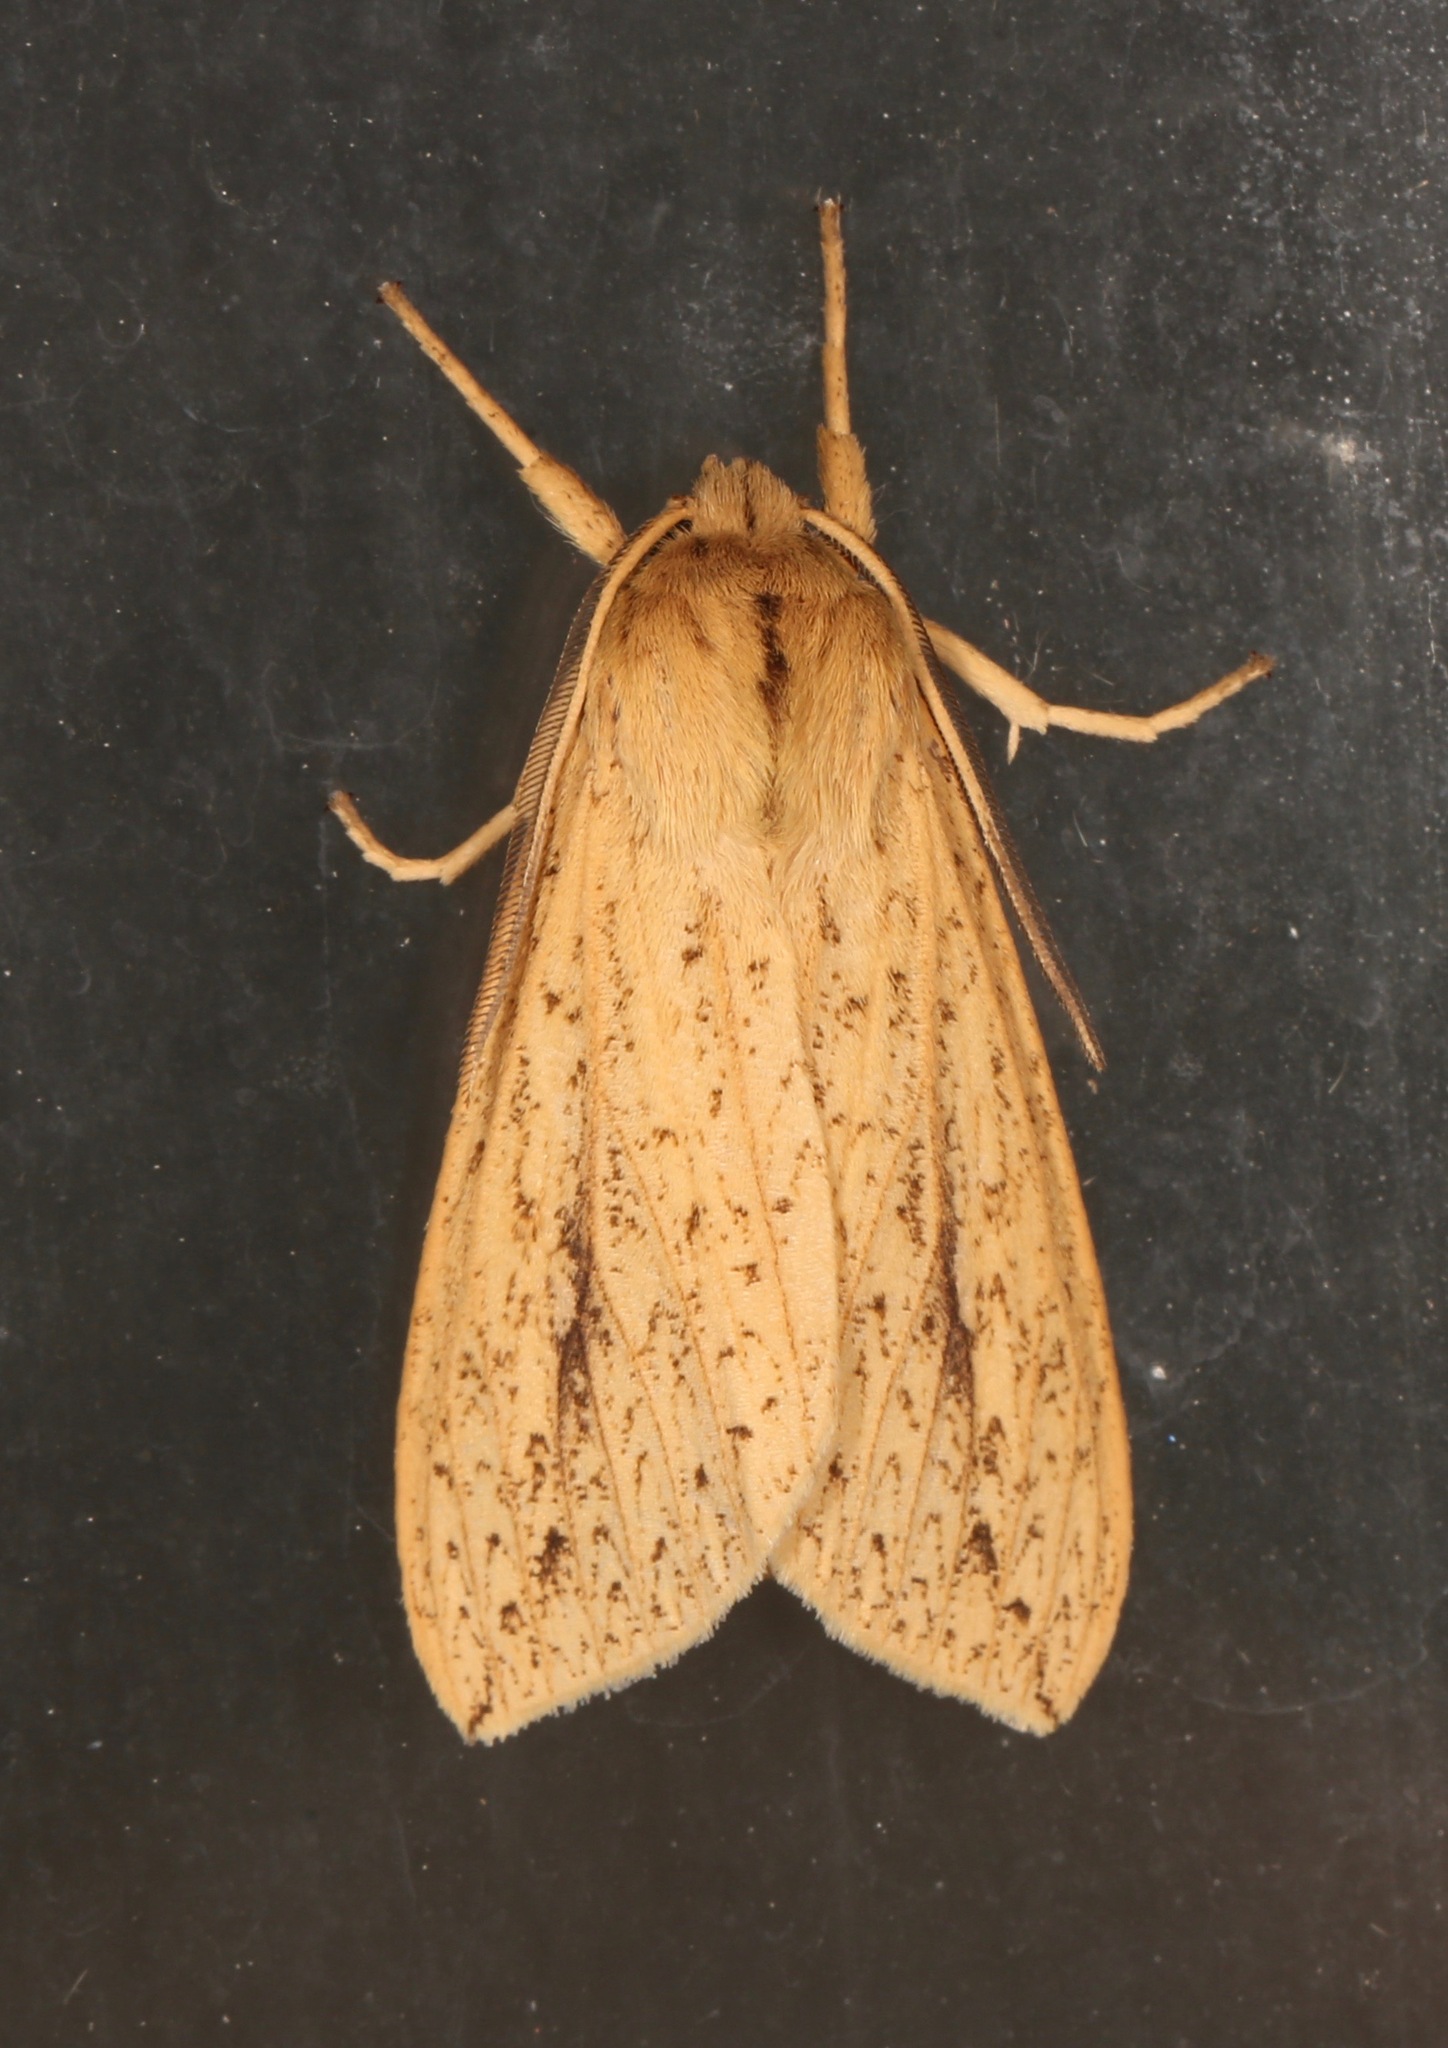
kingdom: Animalia
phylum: Arthropoda
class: Insecta
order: Lepidoptera
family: Erebidae
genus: Leucanopsis
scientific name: Leucanopsis longa
